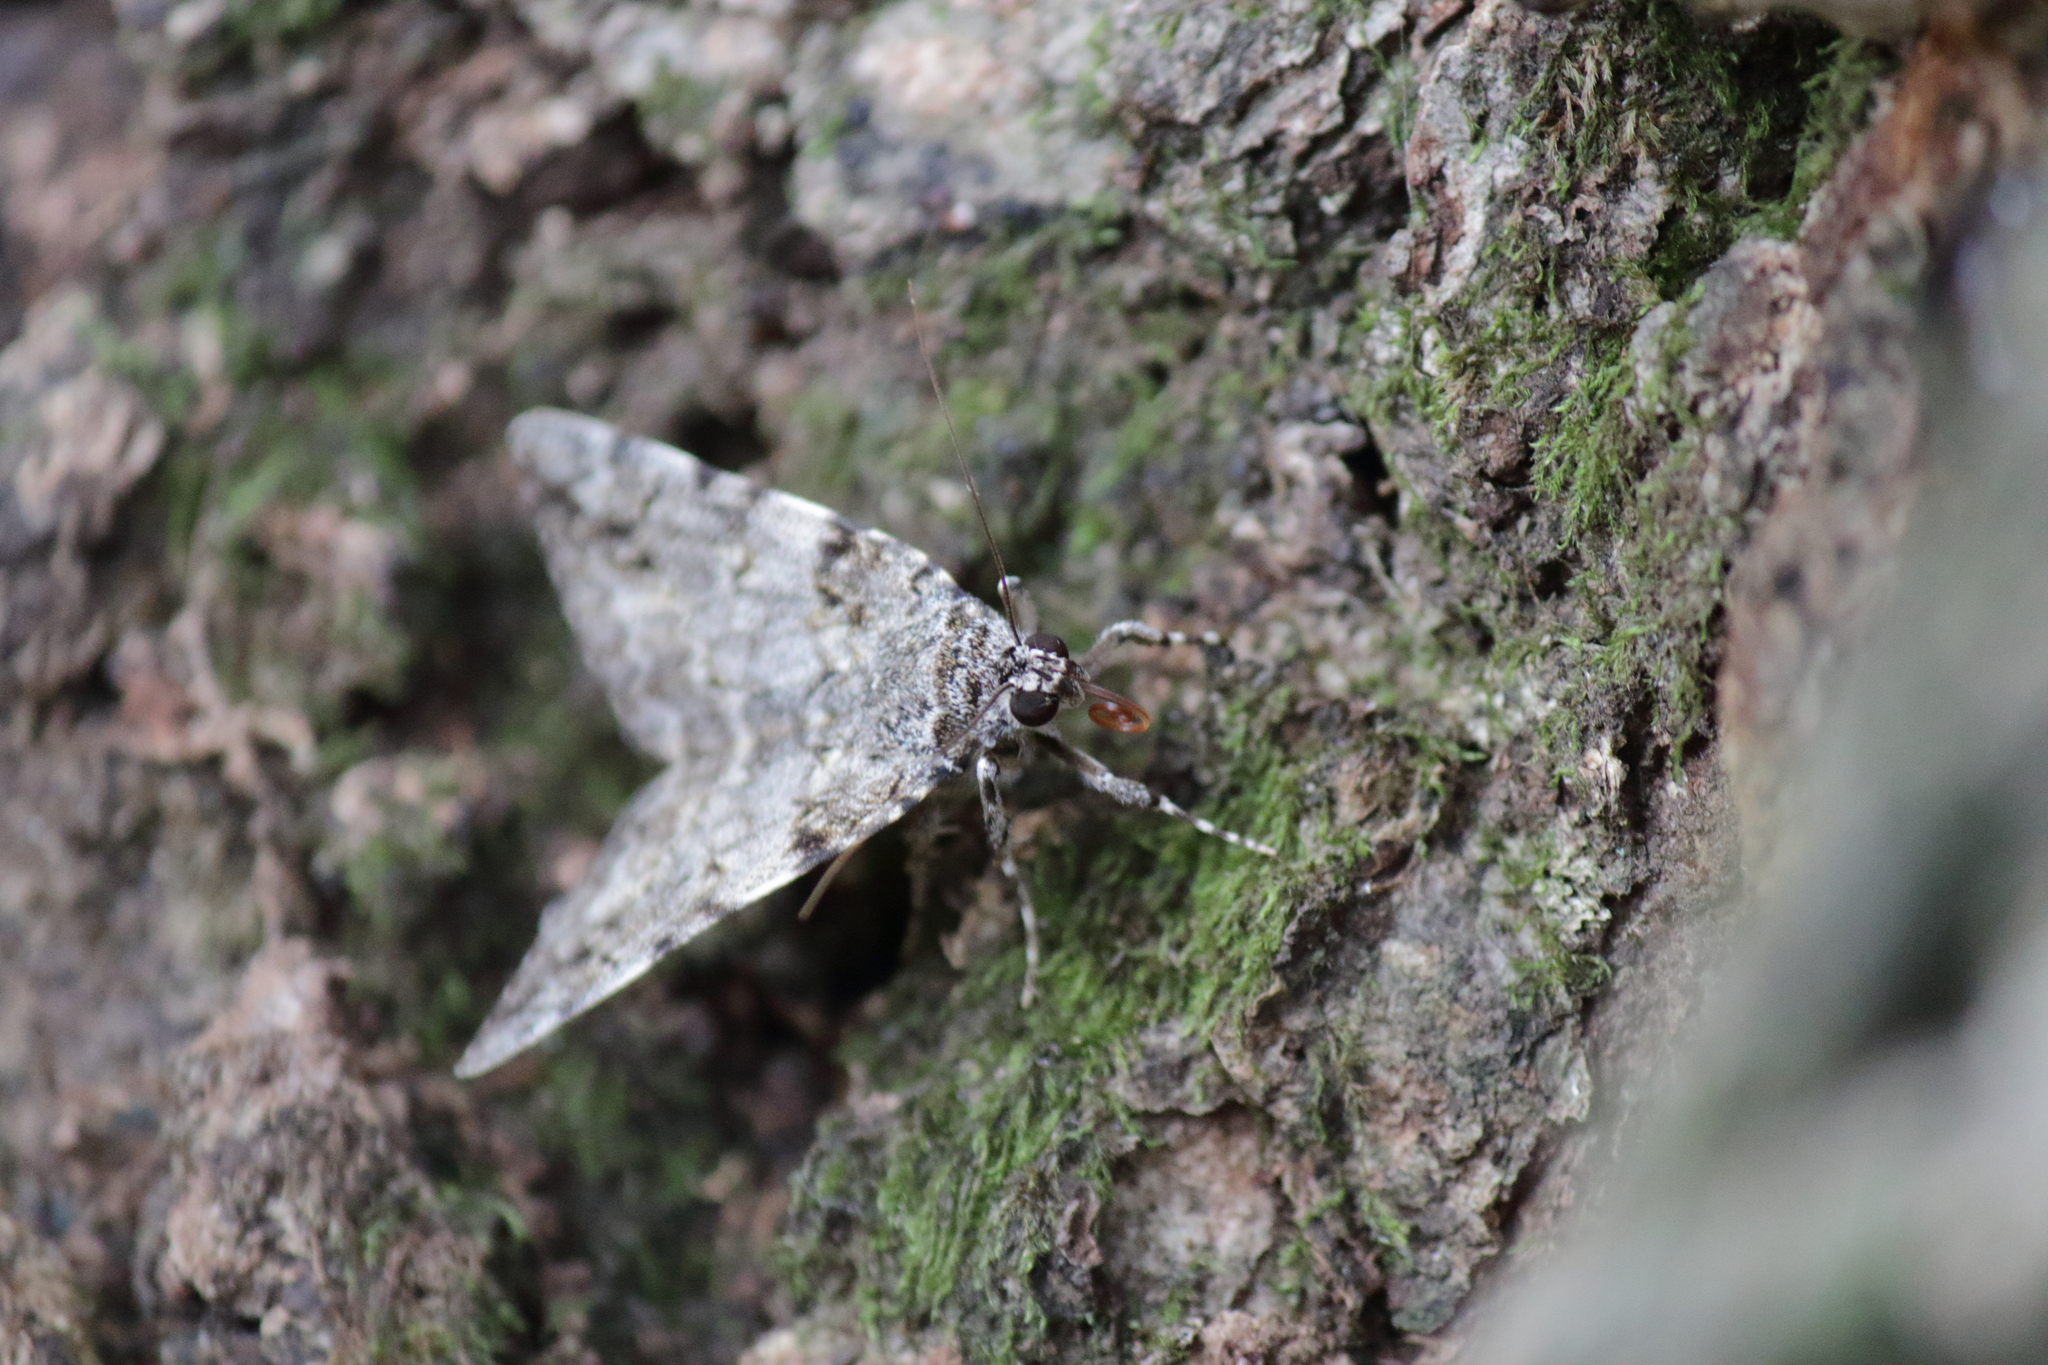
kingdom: Animalia
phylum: Arthropoda
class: Insecta
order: Lepidoptera
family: Erebidae
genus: Catocala
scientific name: Catocala duplicata
